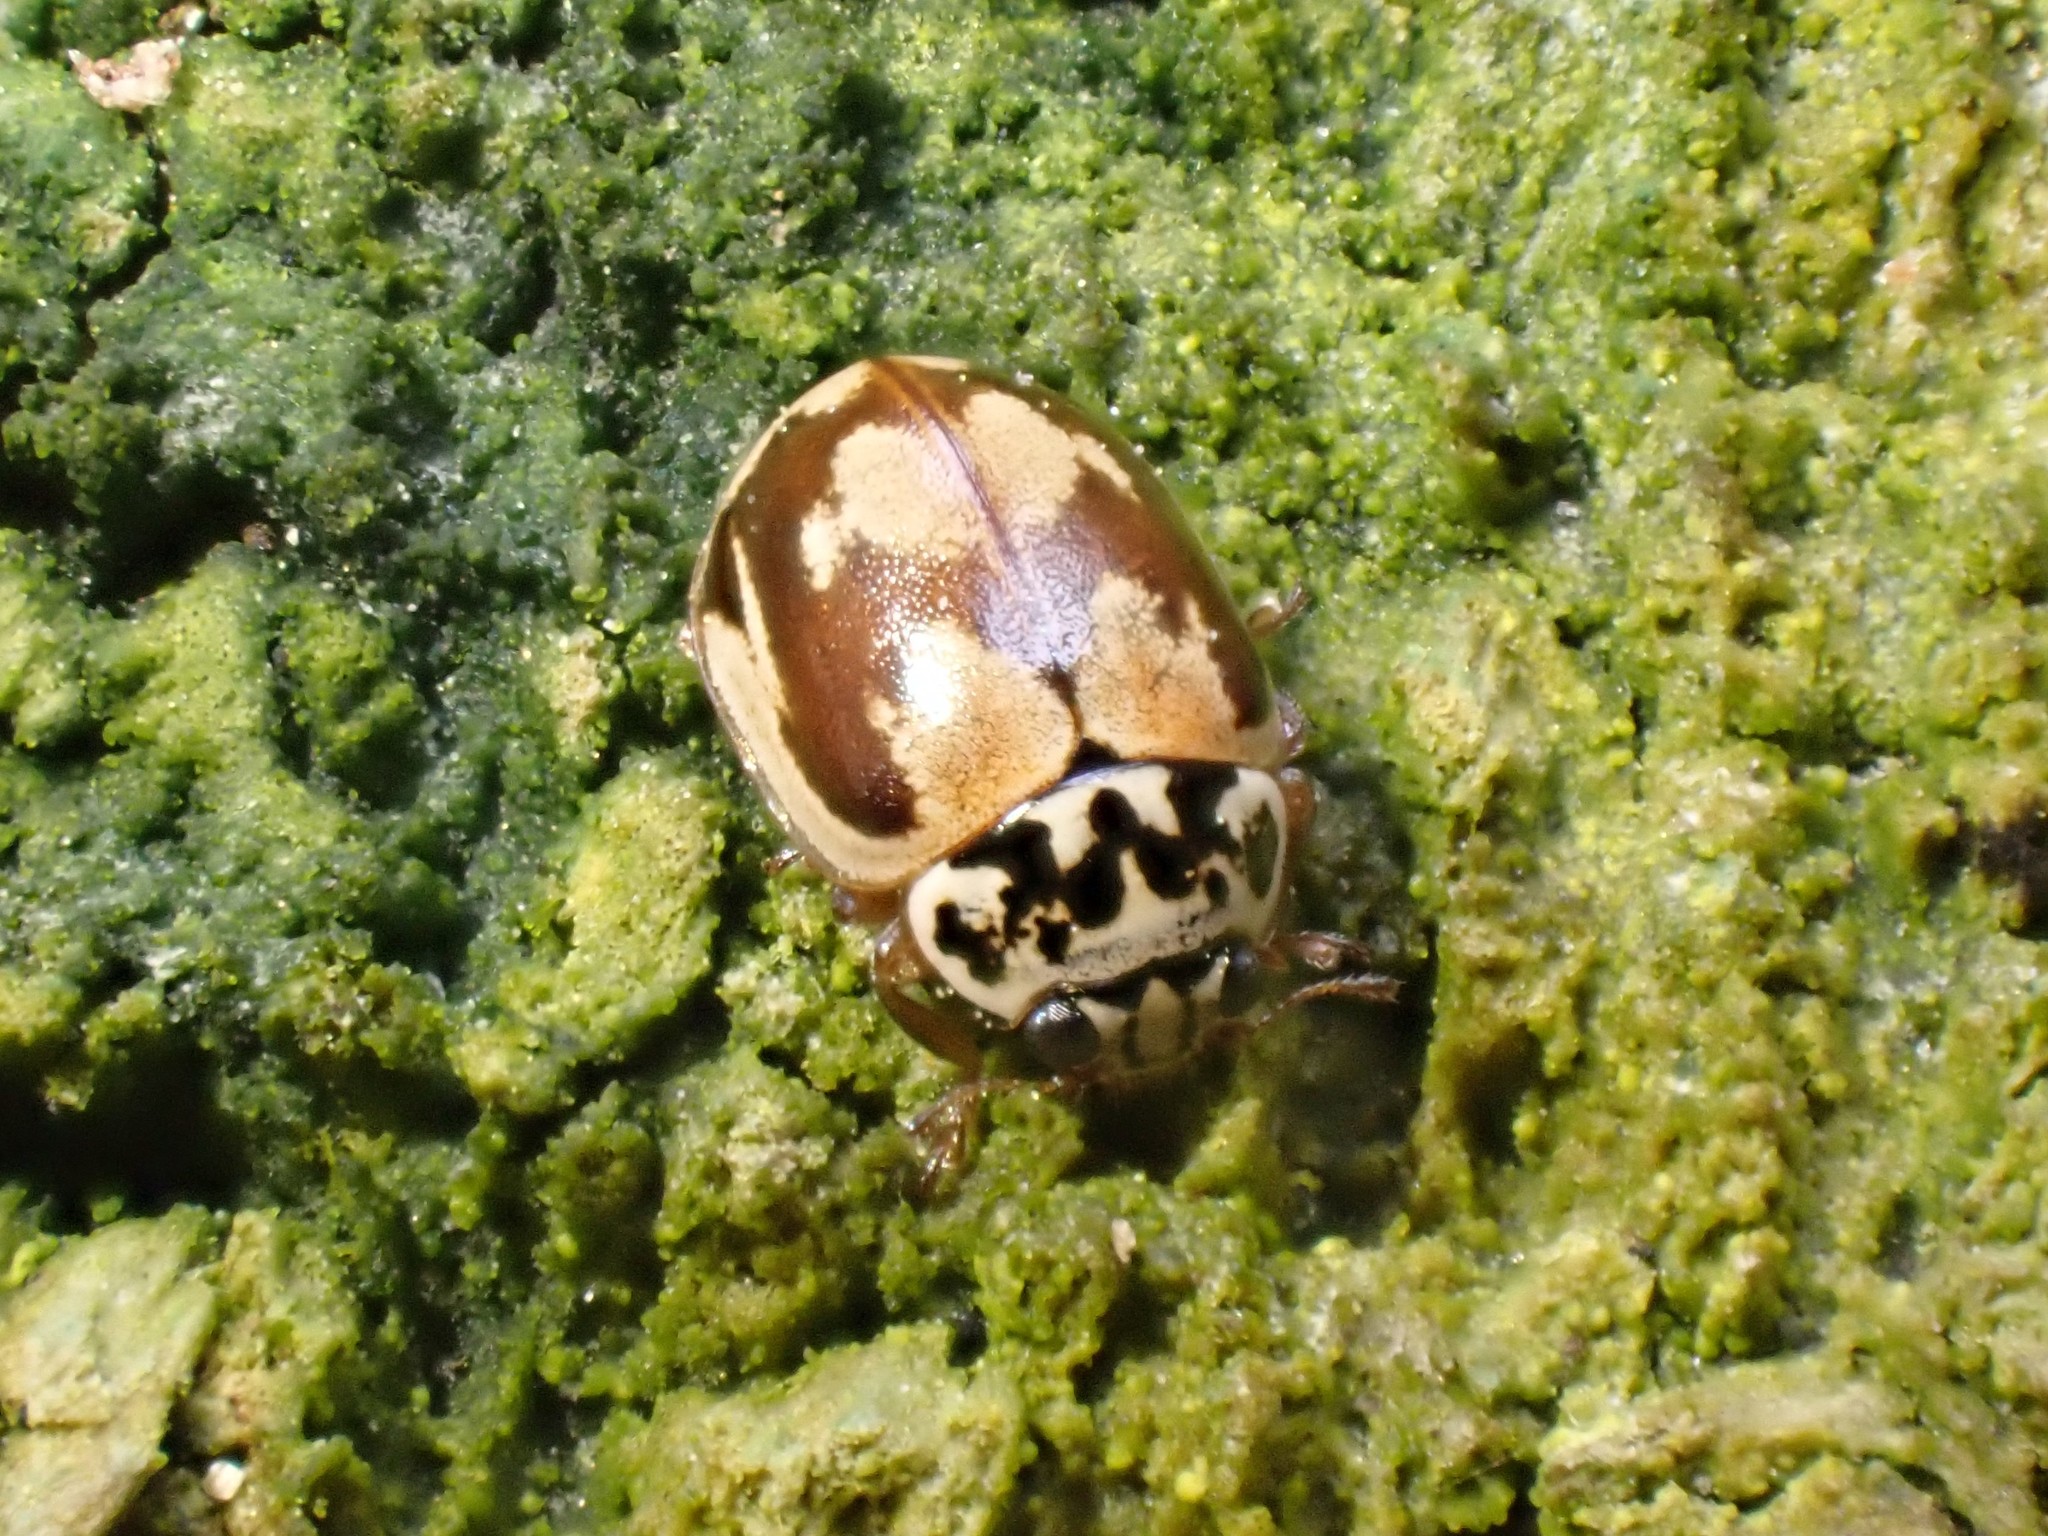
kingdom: Animalia
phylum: Arthropoda
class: Insecta
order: Coleoptera
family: Coccinellidae
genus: Mulsantina
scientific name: Mulsantina picta
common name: Painted ladybird
